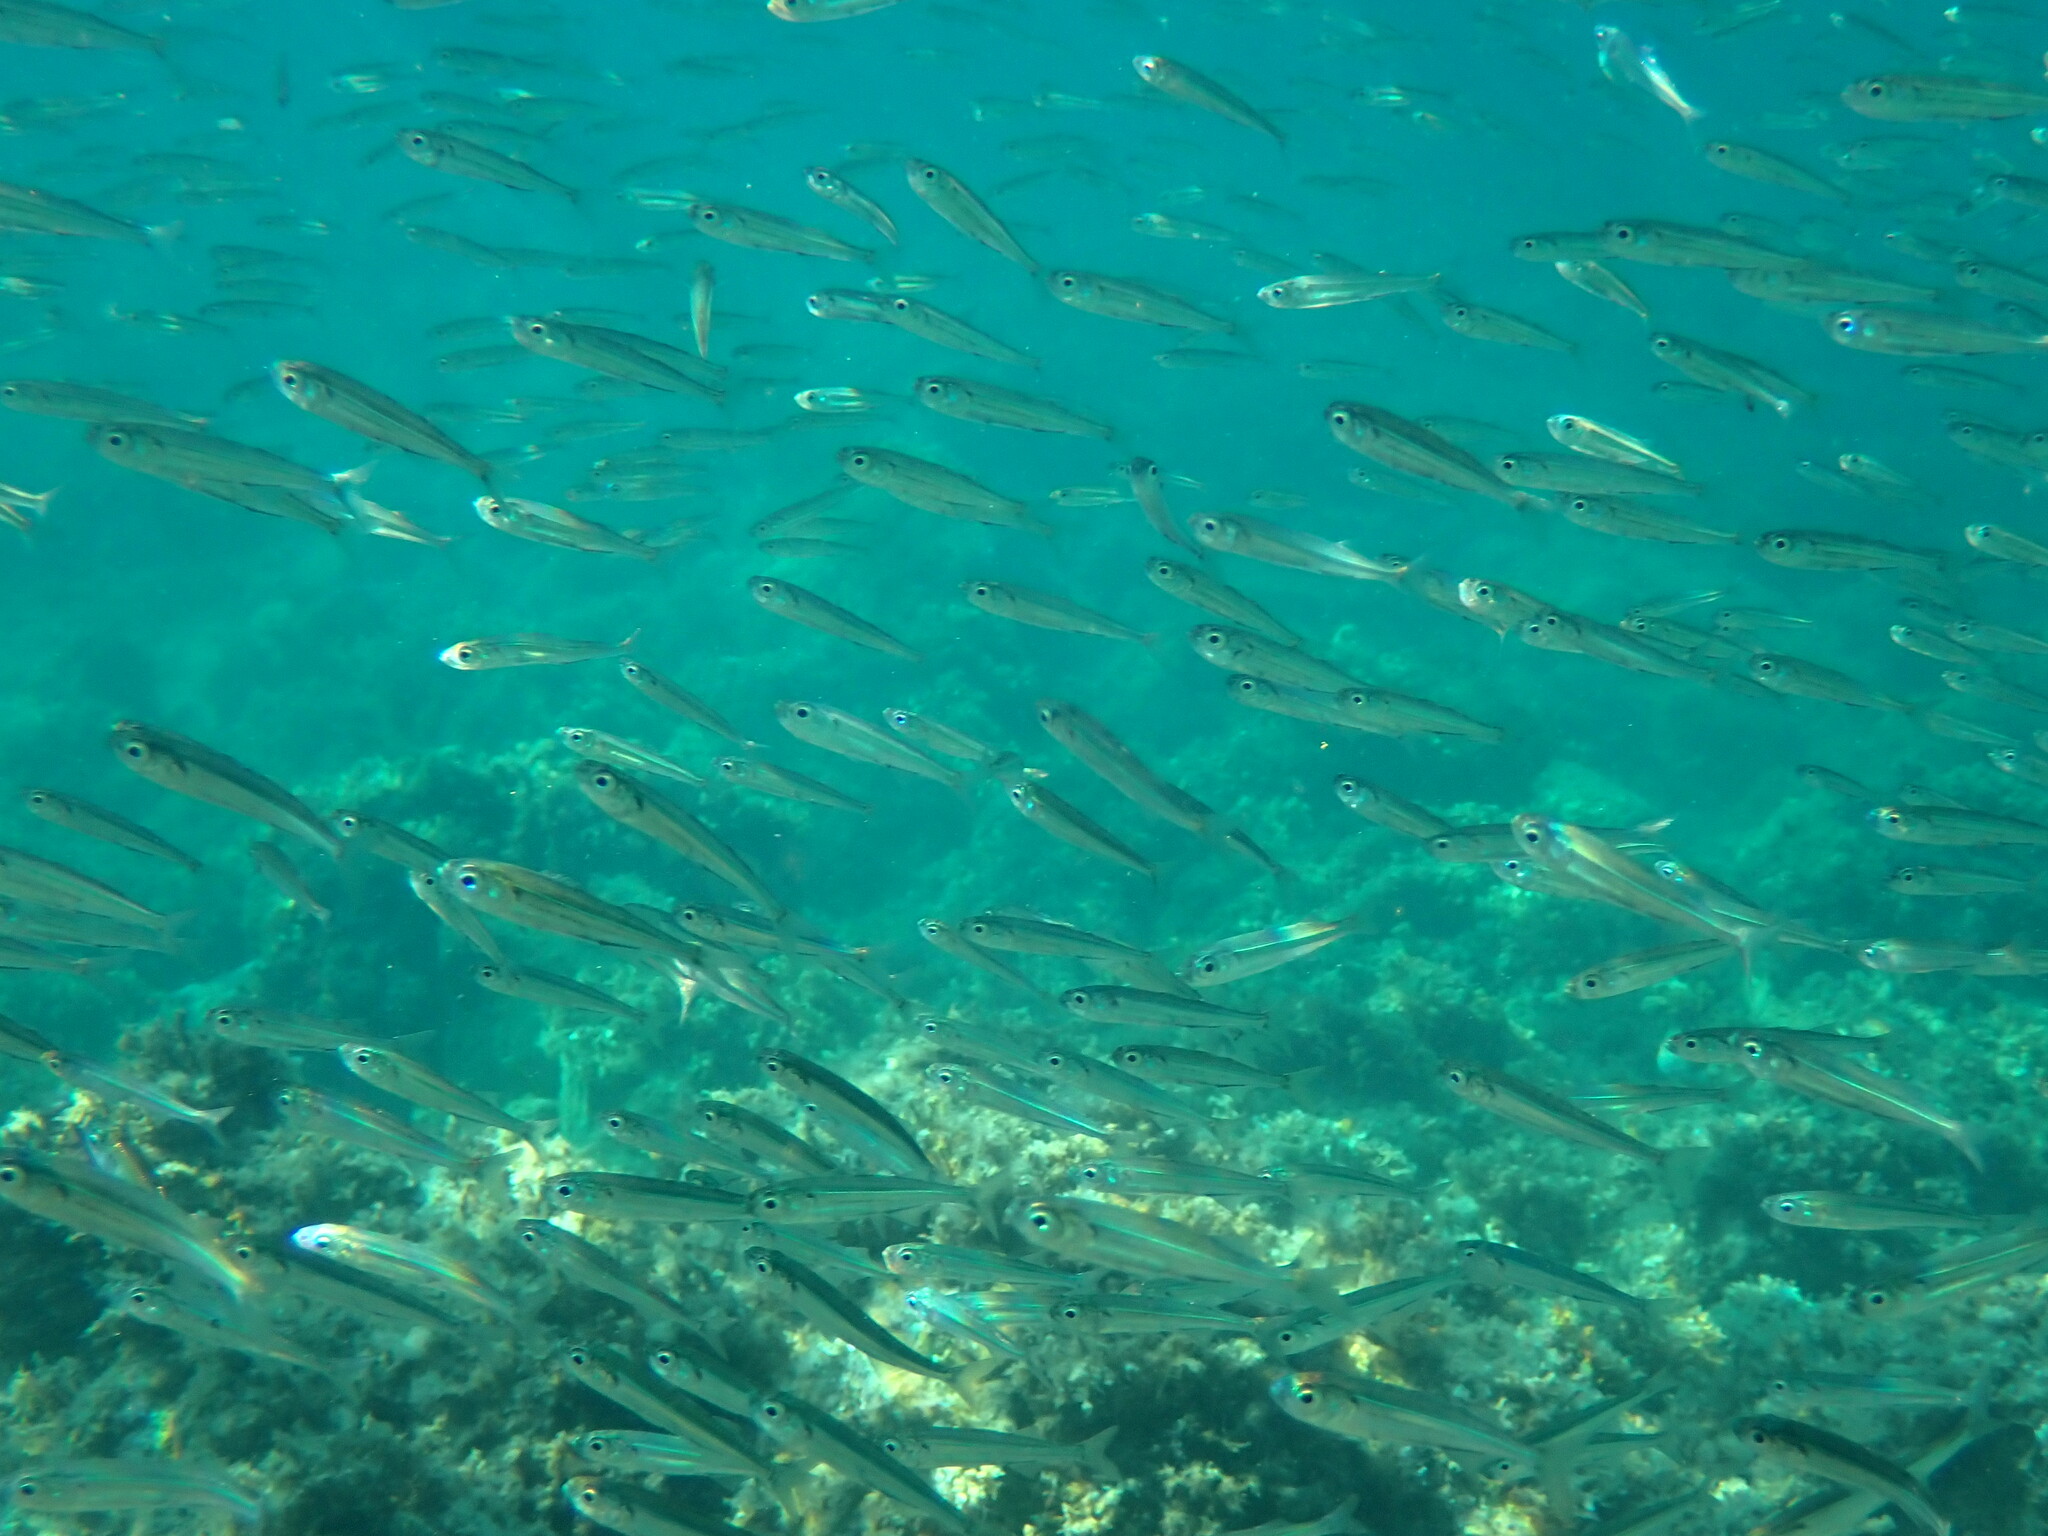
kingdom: Animalia
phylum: Chordata
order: Atheriniformes
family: Atherinidae
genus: Atherina
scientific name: Atherina boyeri
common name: Big-scale sand smelt
